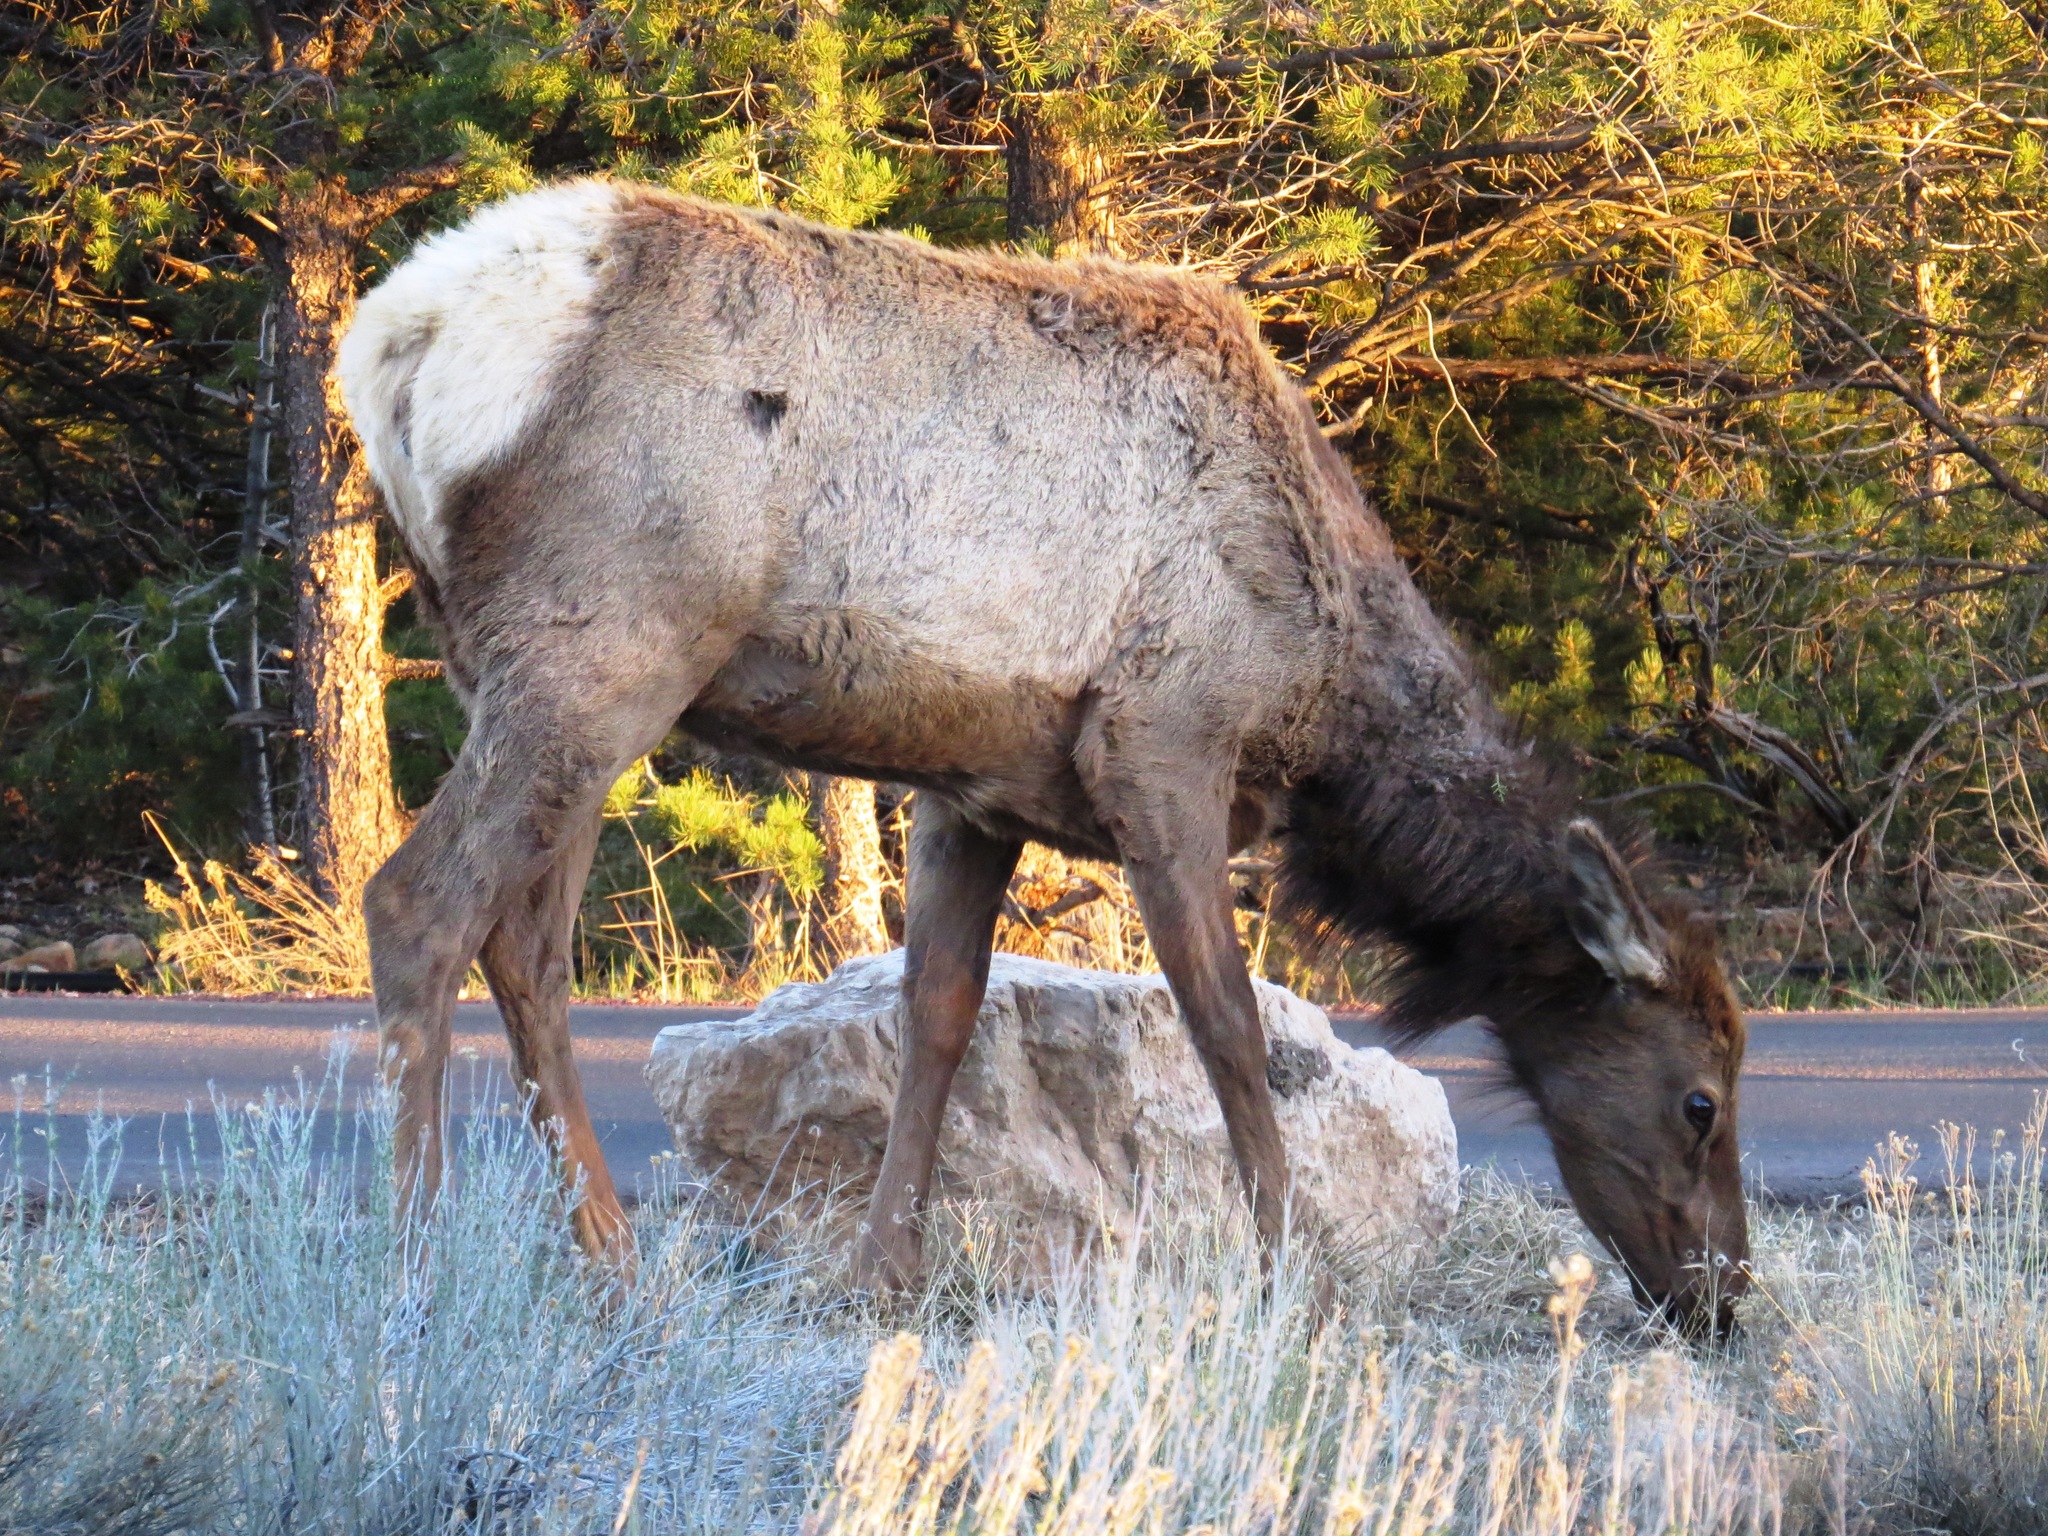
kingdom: Animalia
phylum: Chordata
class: Mammalia
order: Artiodactyla
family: Cervidae
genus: Cervus
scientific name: Cervus elaphus
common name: Red deer
